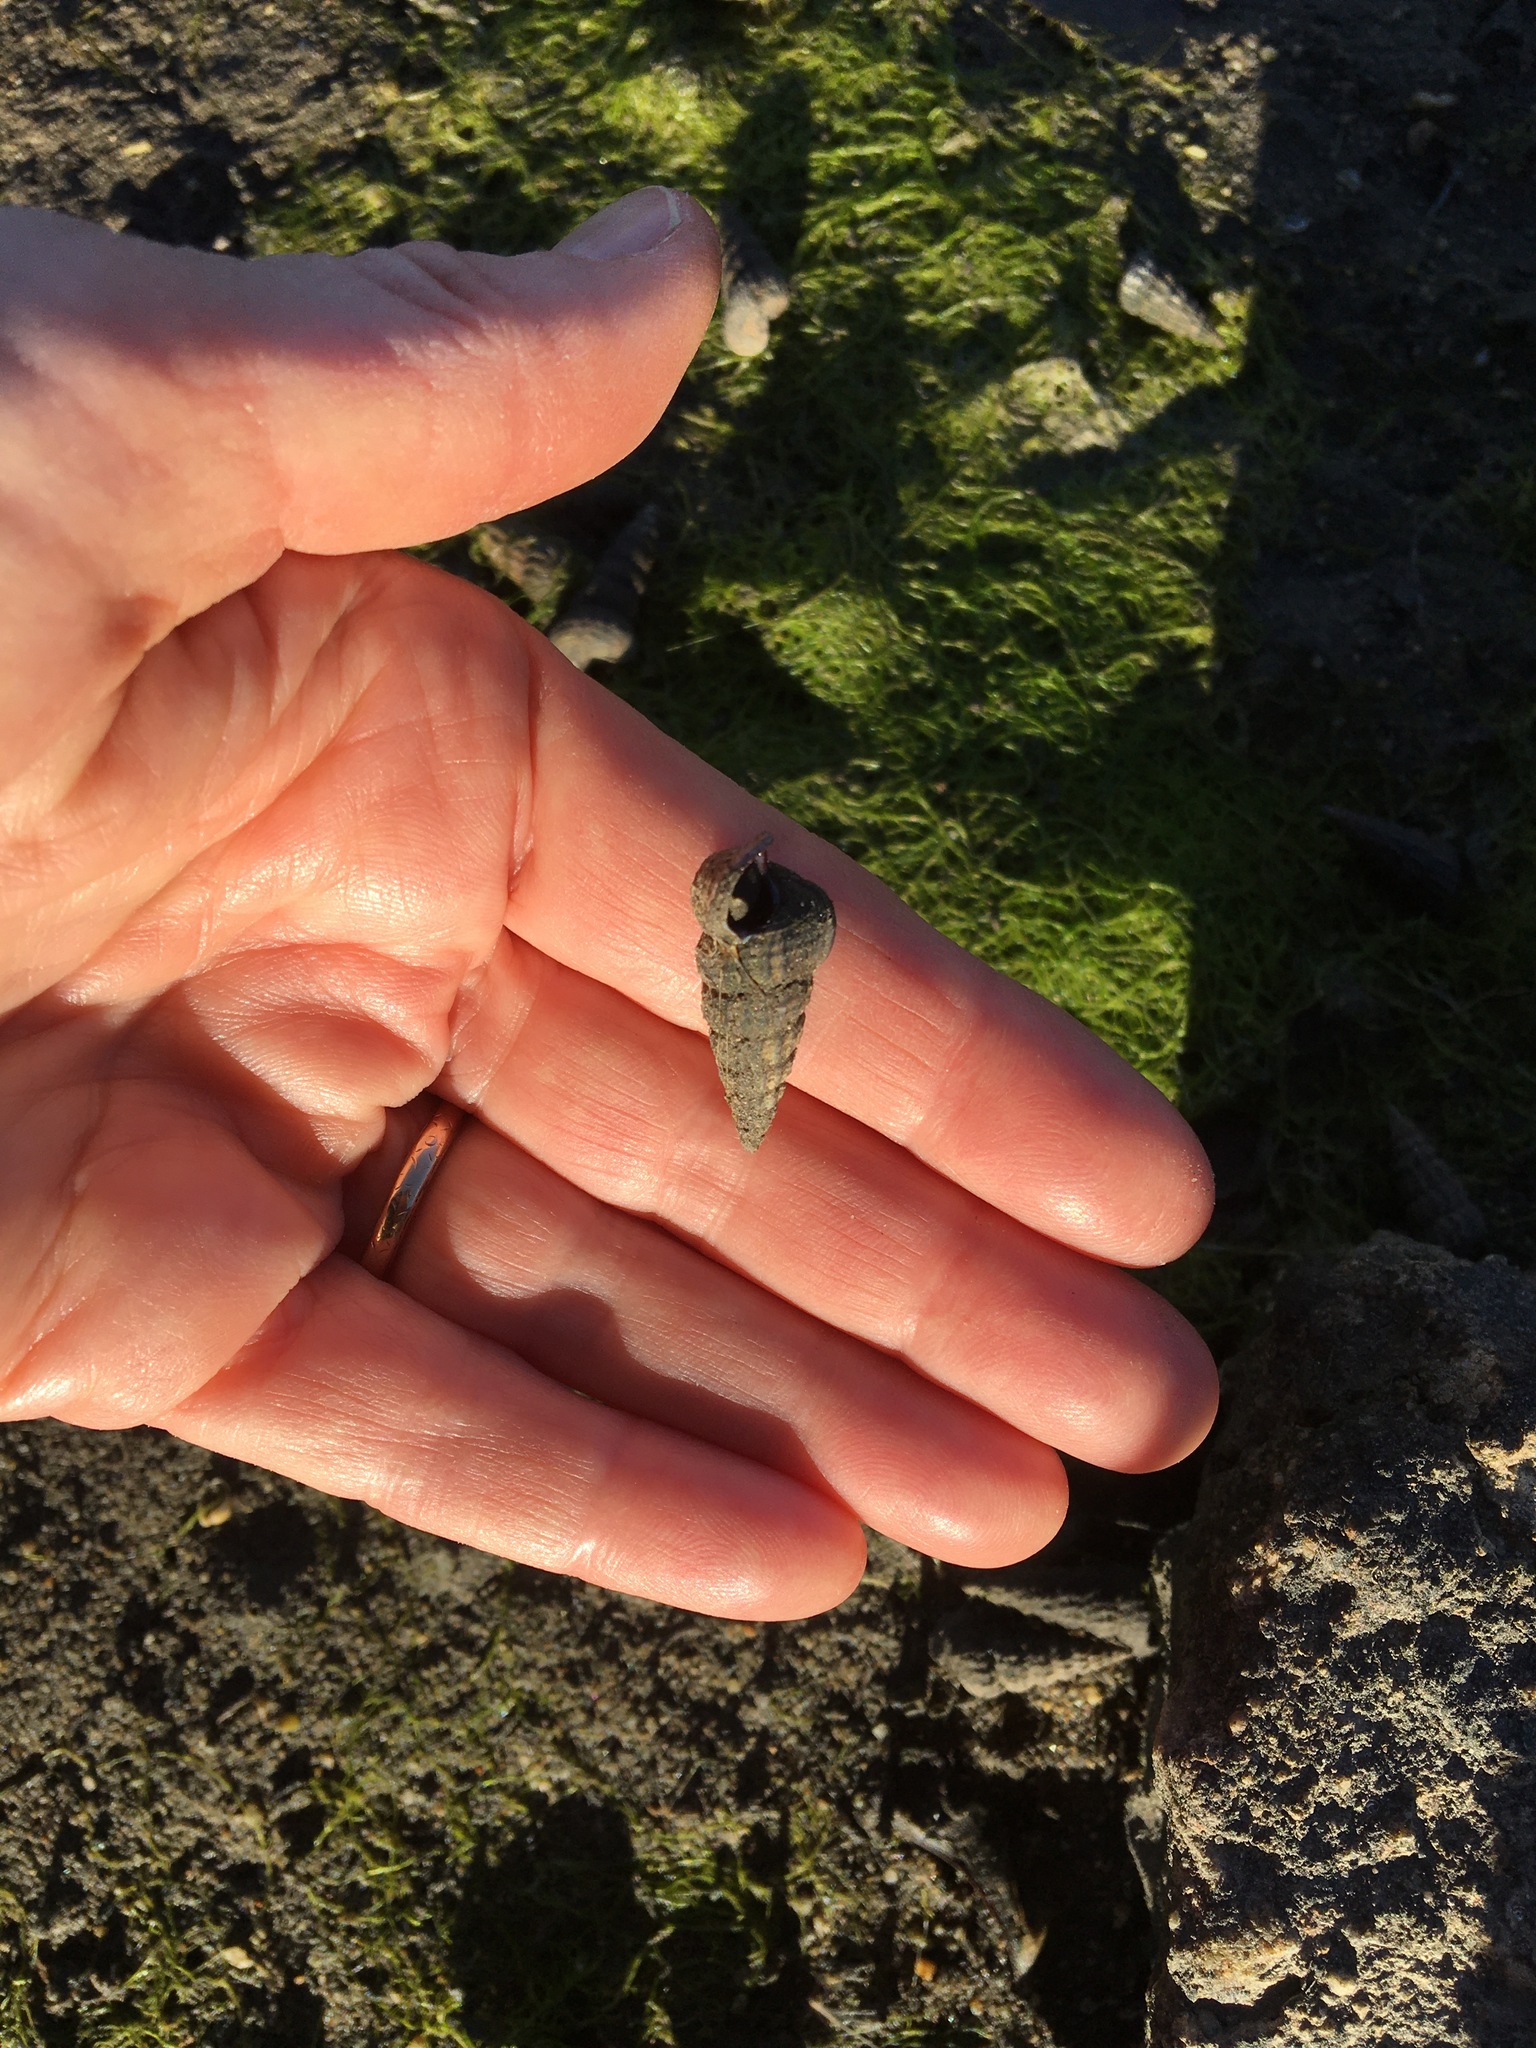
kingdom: Animalia
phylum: Mollusca
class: Gastropoda
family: Potamididae
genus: Cerithideopsis
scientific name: Cerithideopsis californica
